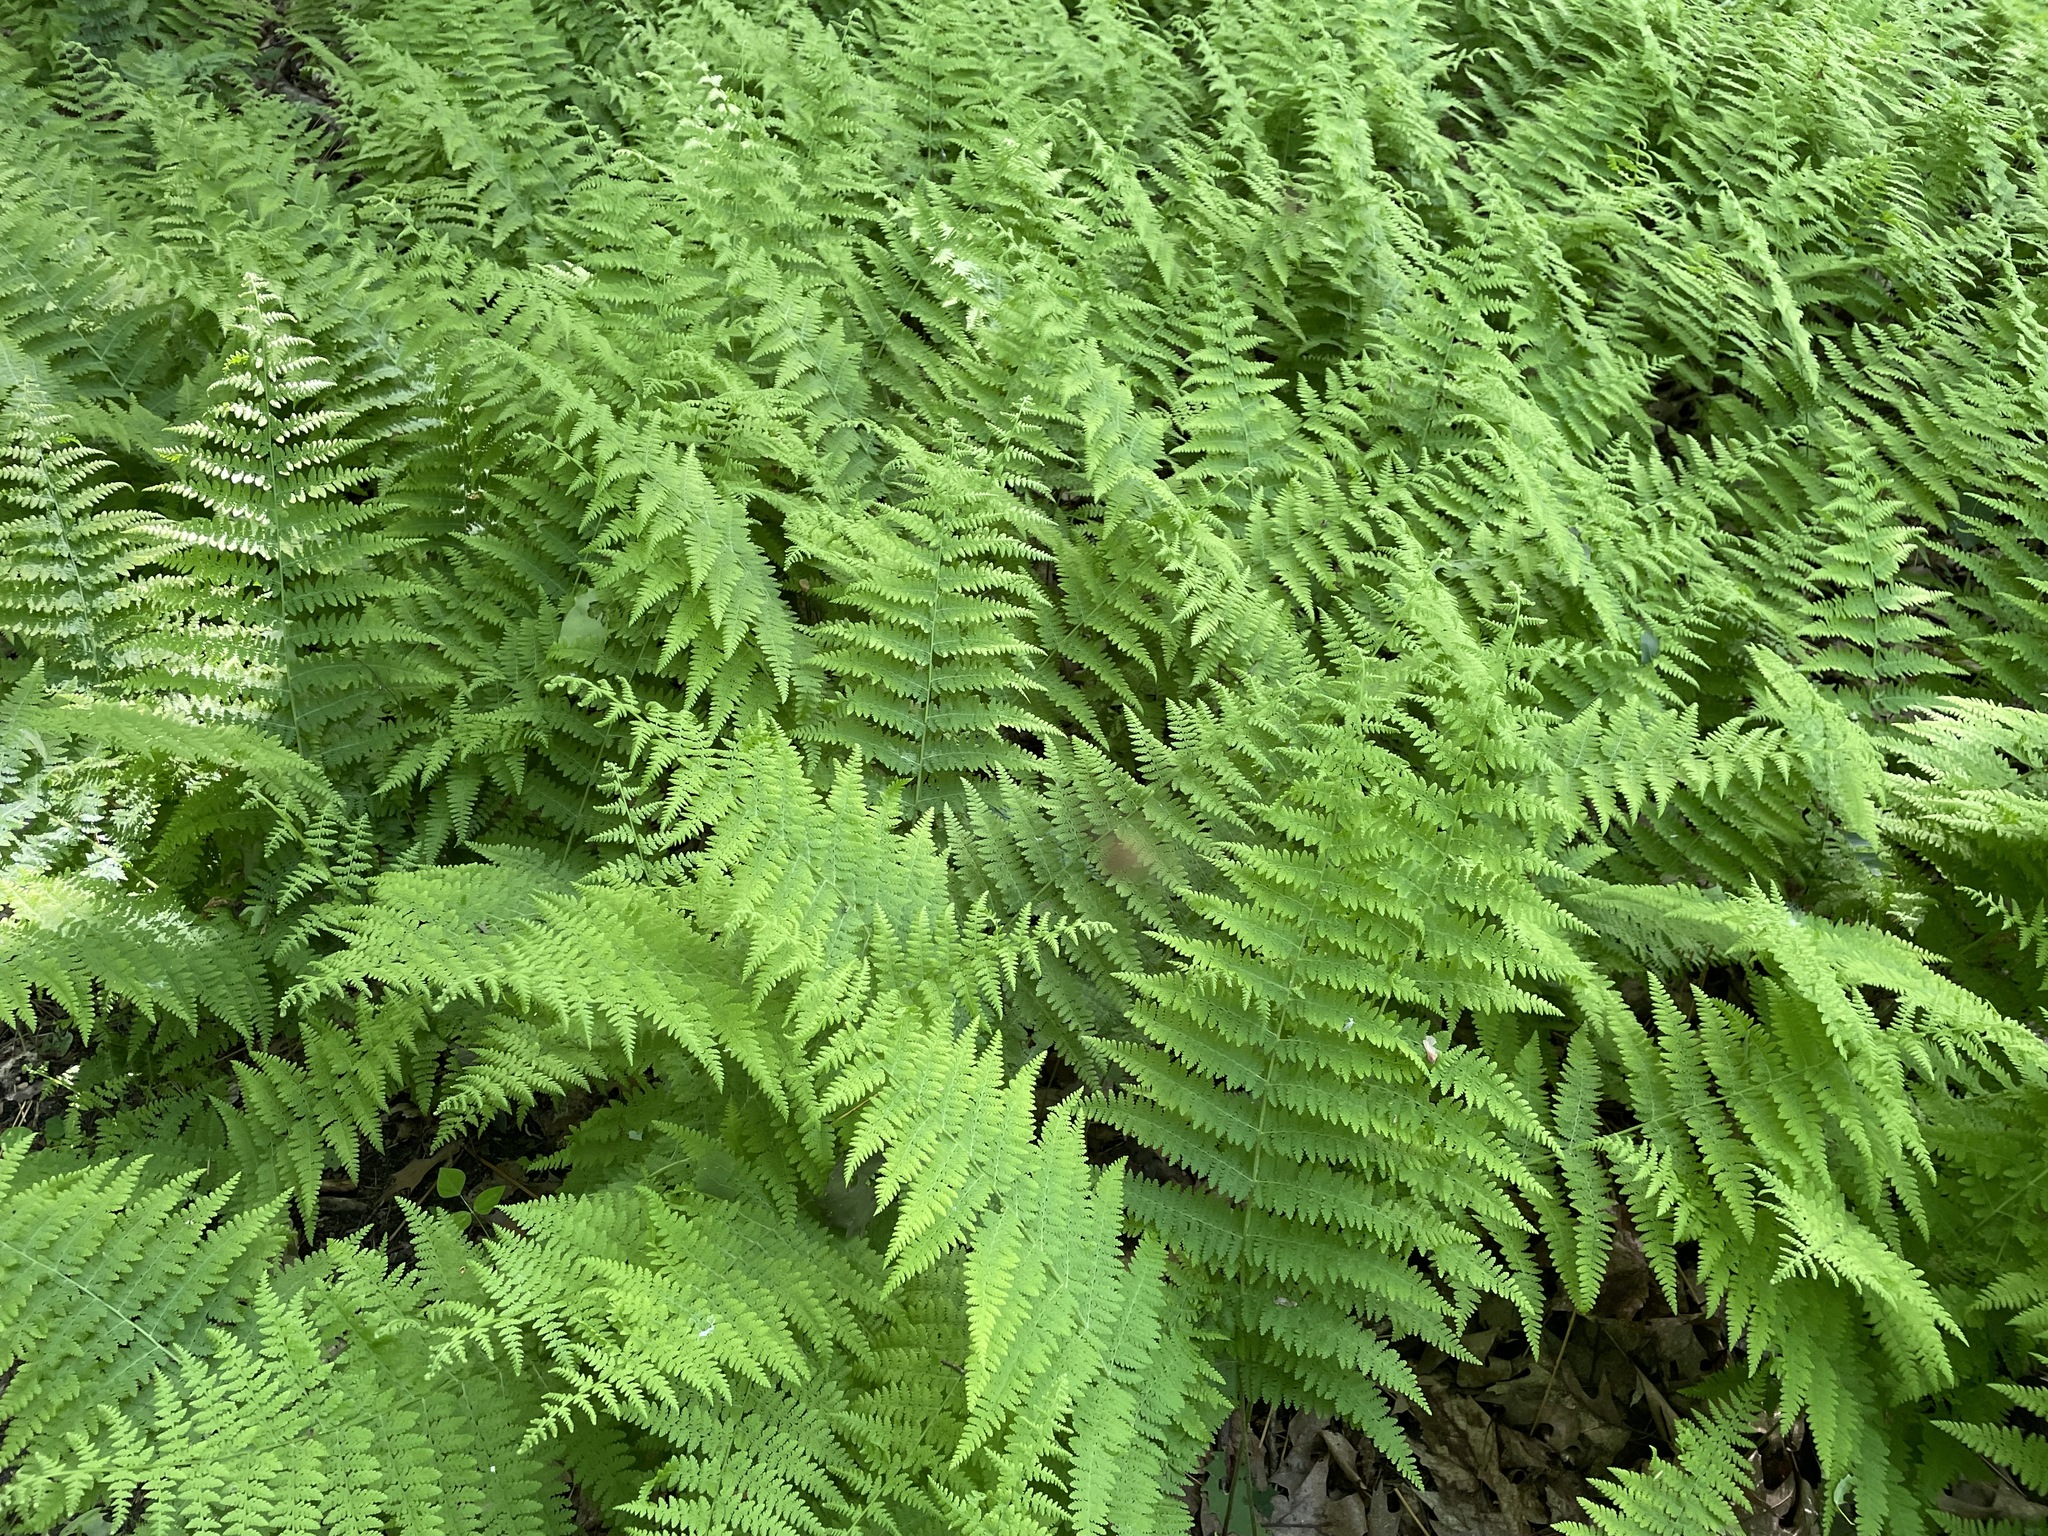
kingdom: Plantae
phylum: Tracheophyta
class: Polypodiopsida
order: Polypodiales
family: Dennstaedtiaceae
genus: Sitobolium
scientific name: Sitobolium punctilobum
